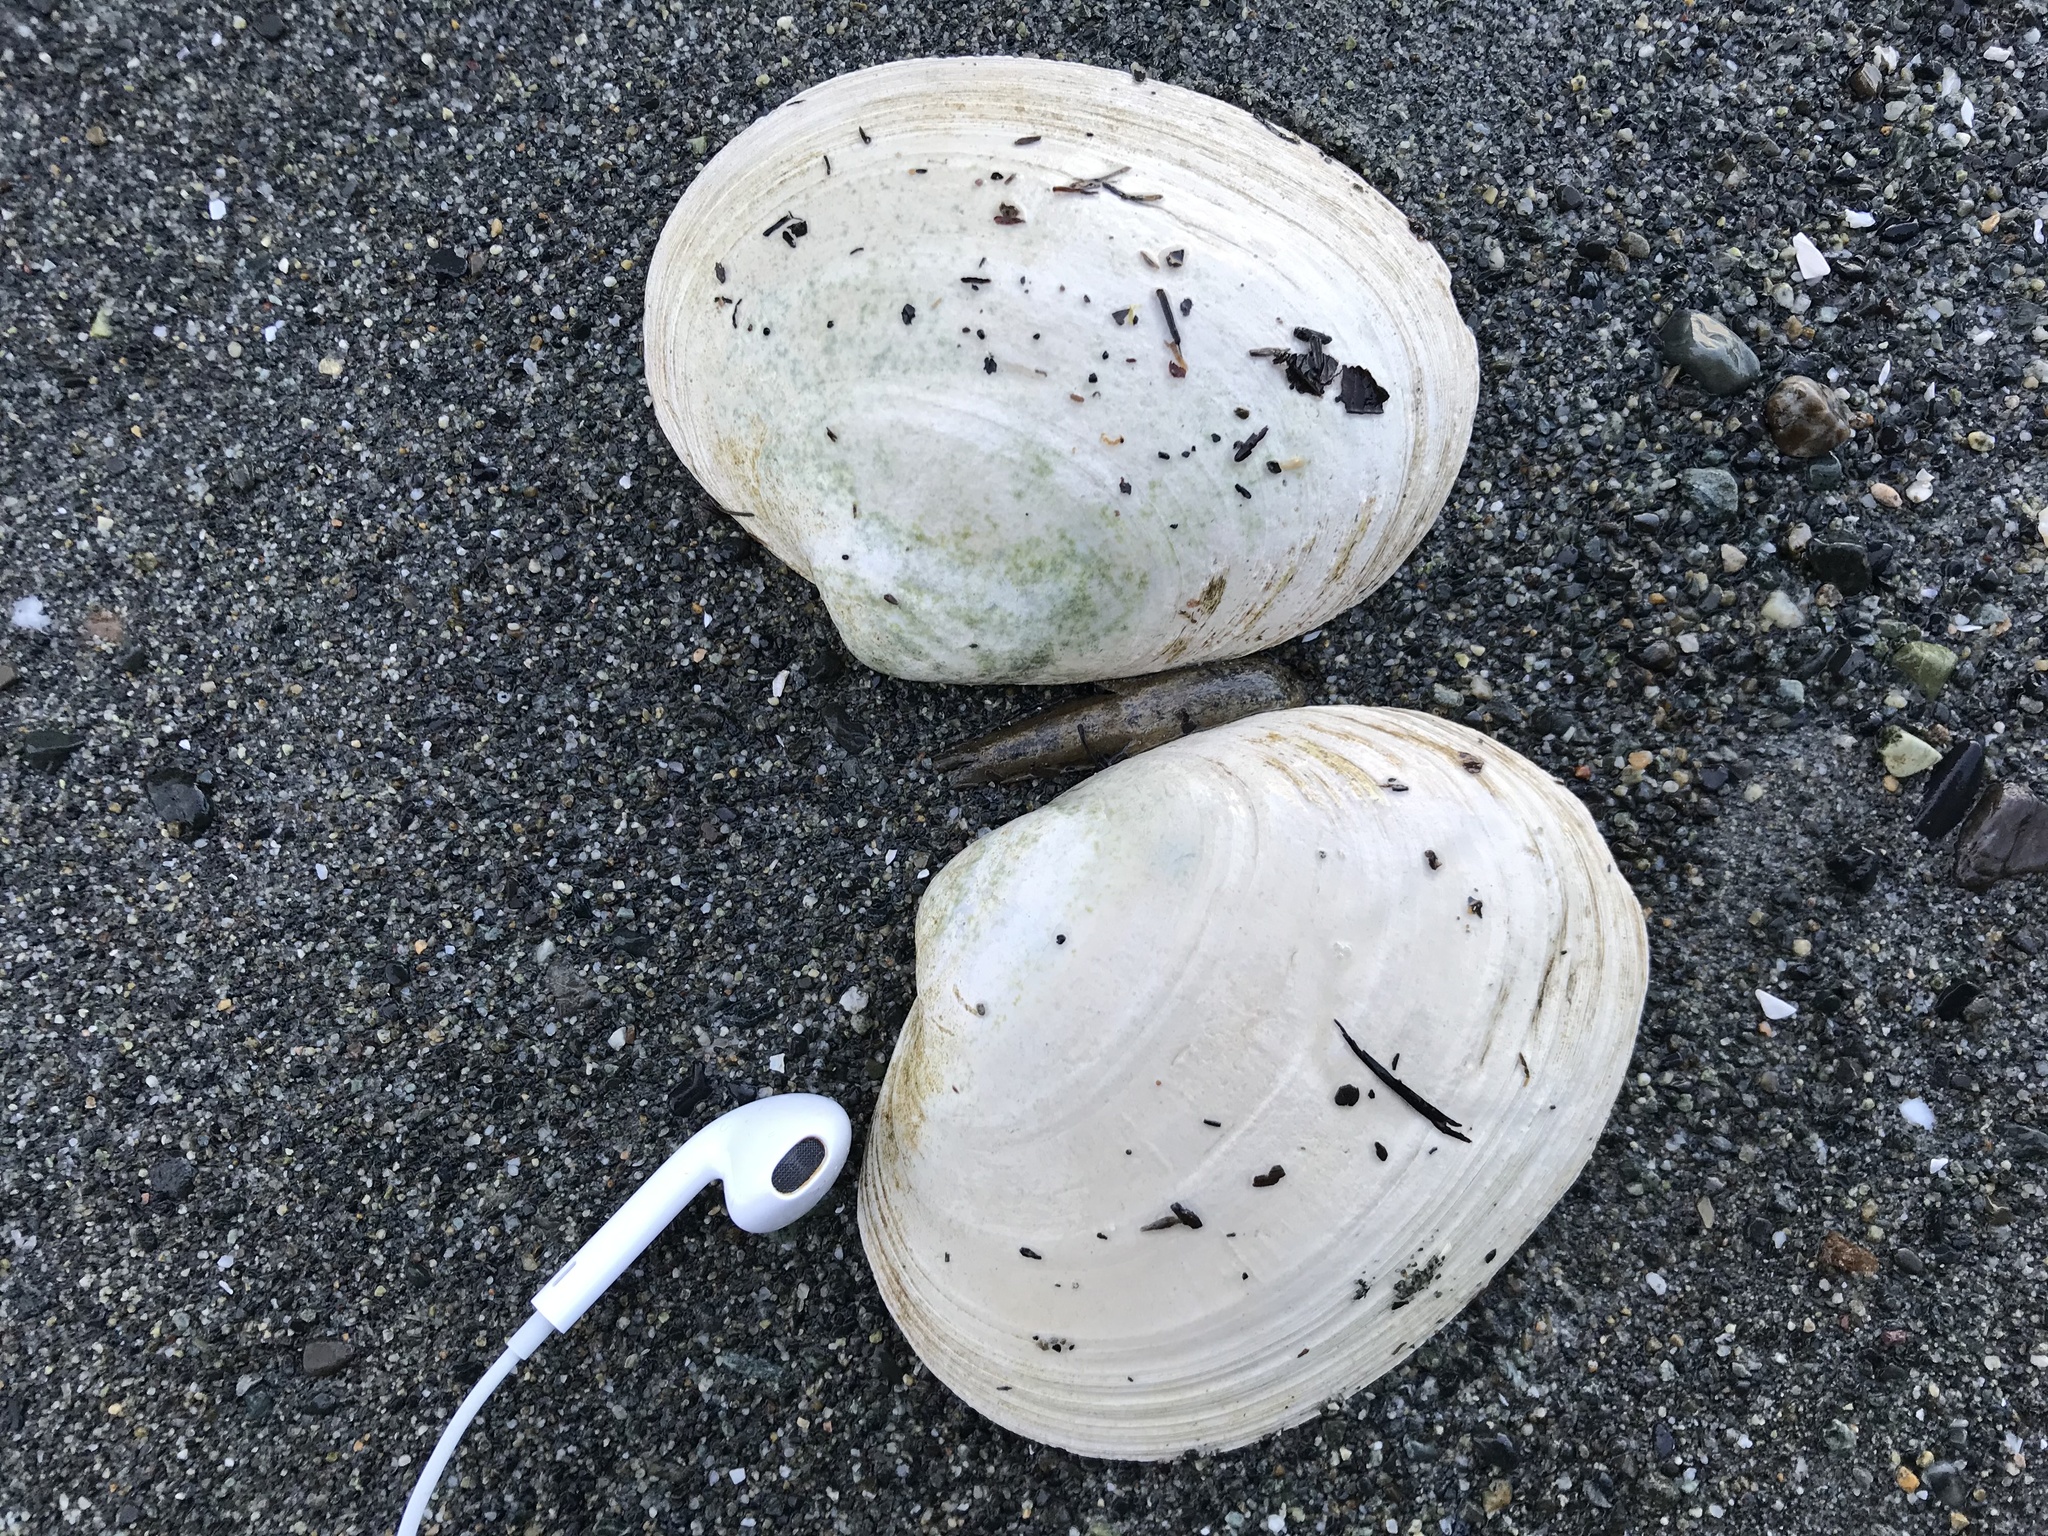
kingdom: Animalia
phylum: Mollusca
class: Bivalvia
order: Venerida
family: Veneridae
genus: Saxidomus
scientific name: Saxidomus gigantea
